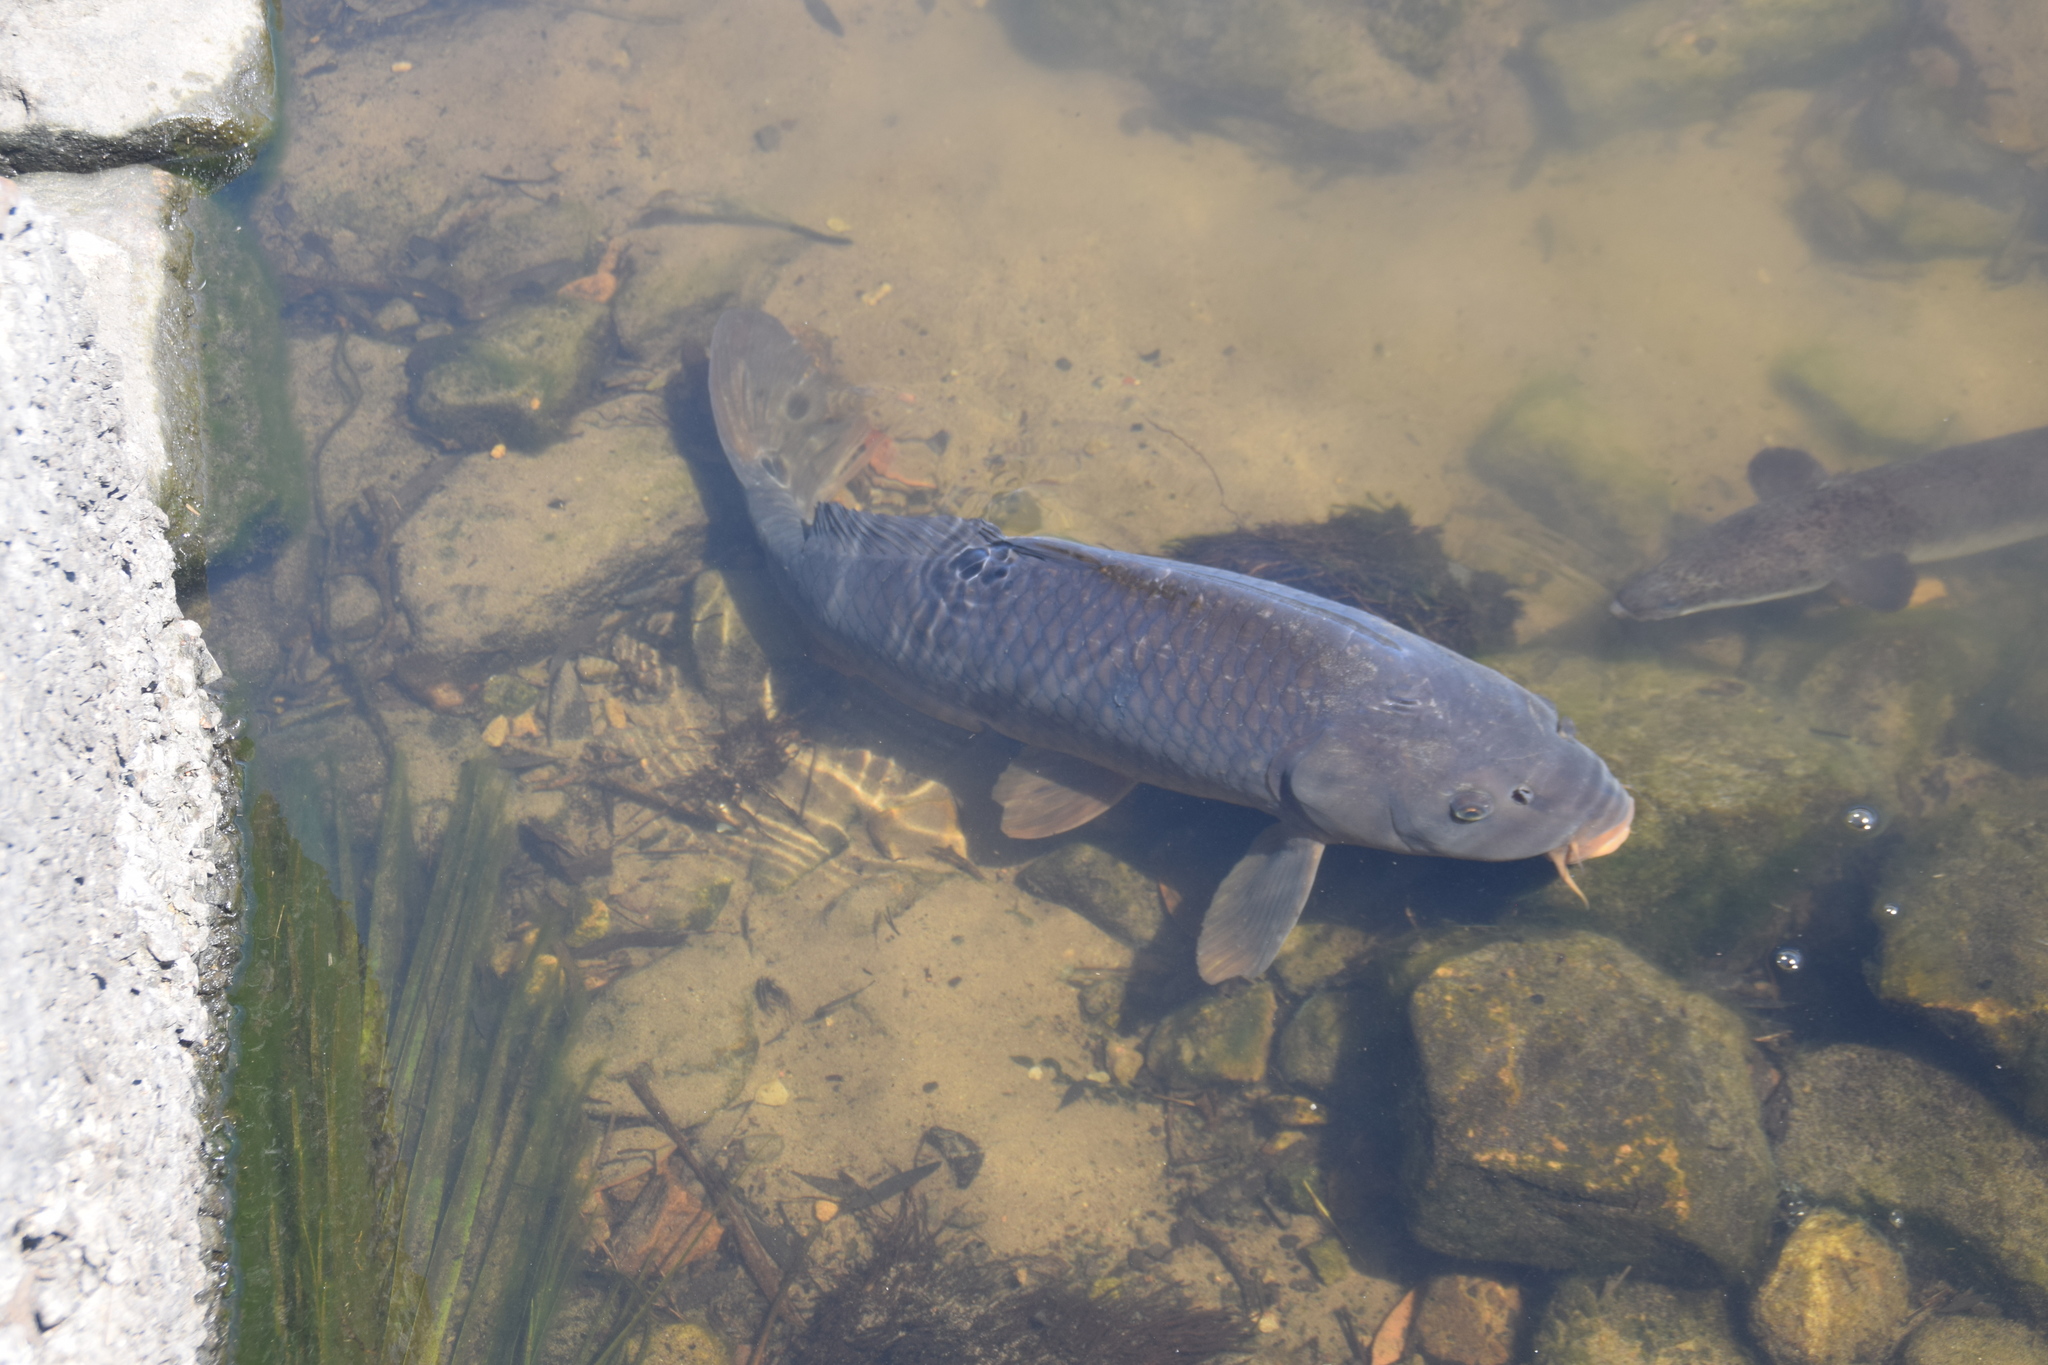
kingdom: Animalia
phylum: Chordata
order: Cypriniformes
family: Cyprinidae
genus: Cyprinus
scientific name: Cyprinus carpio
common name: Common carp
